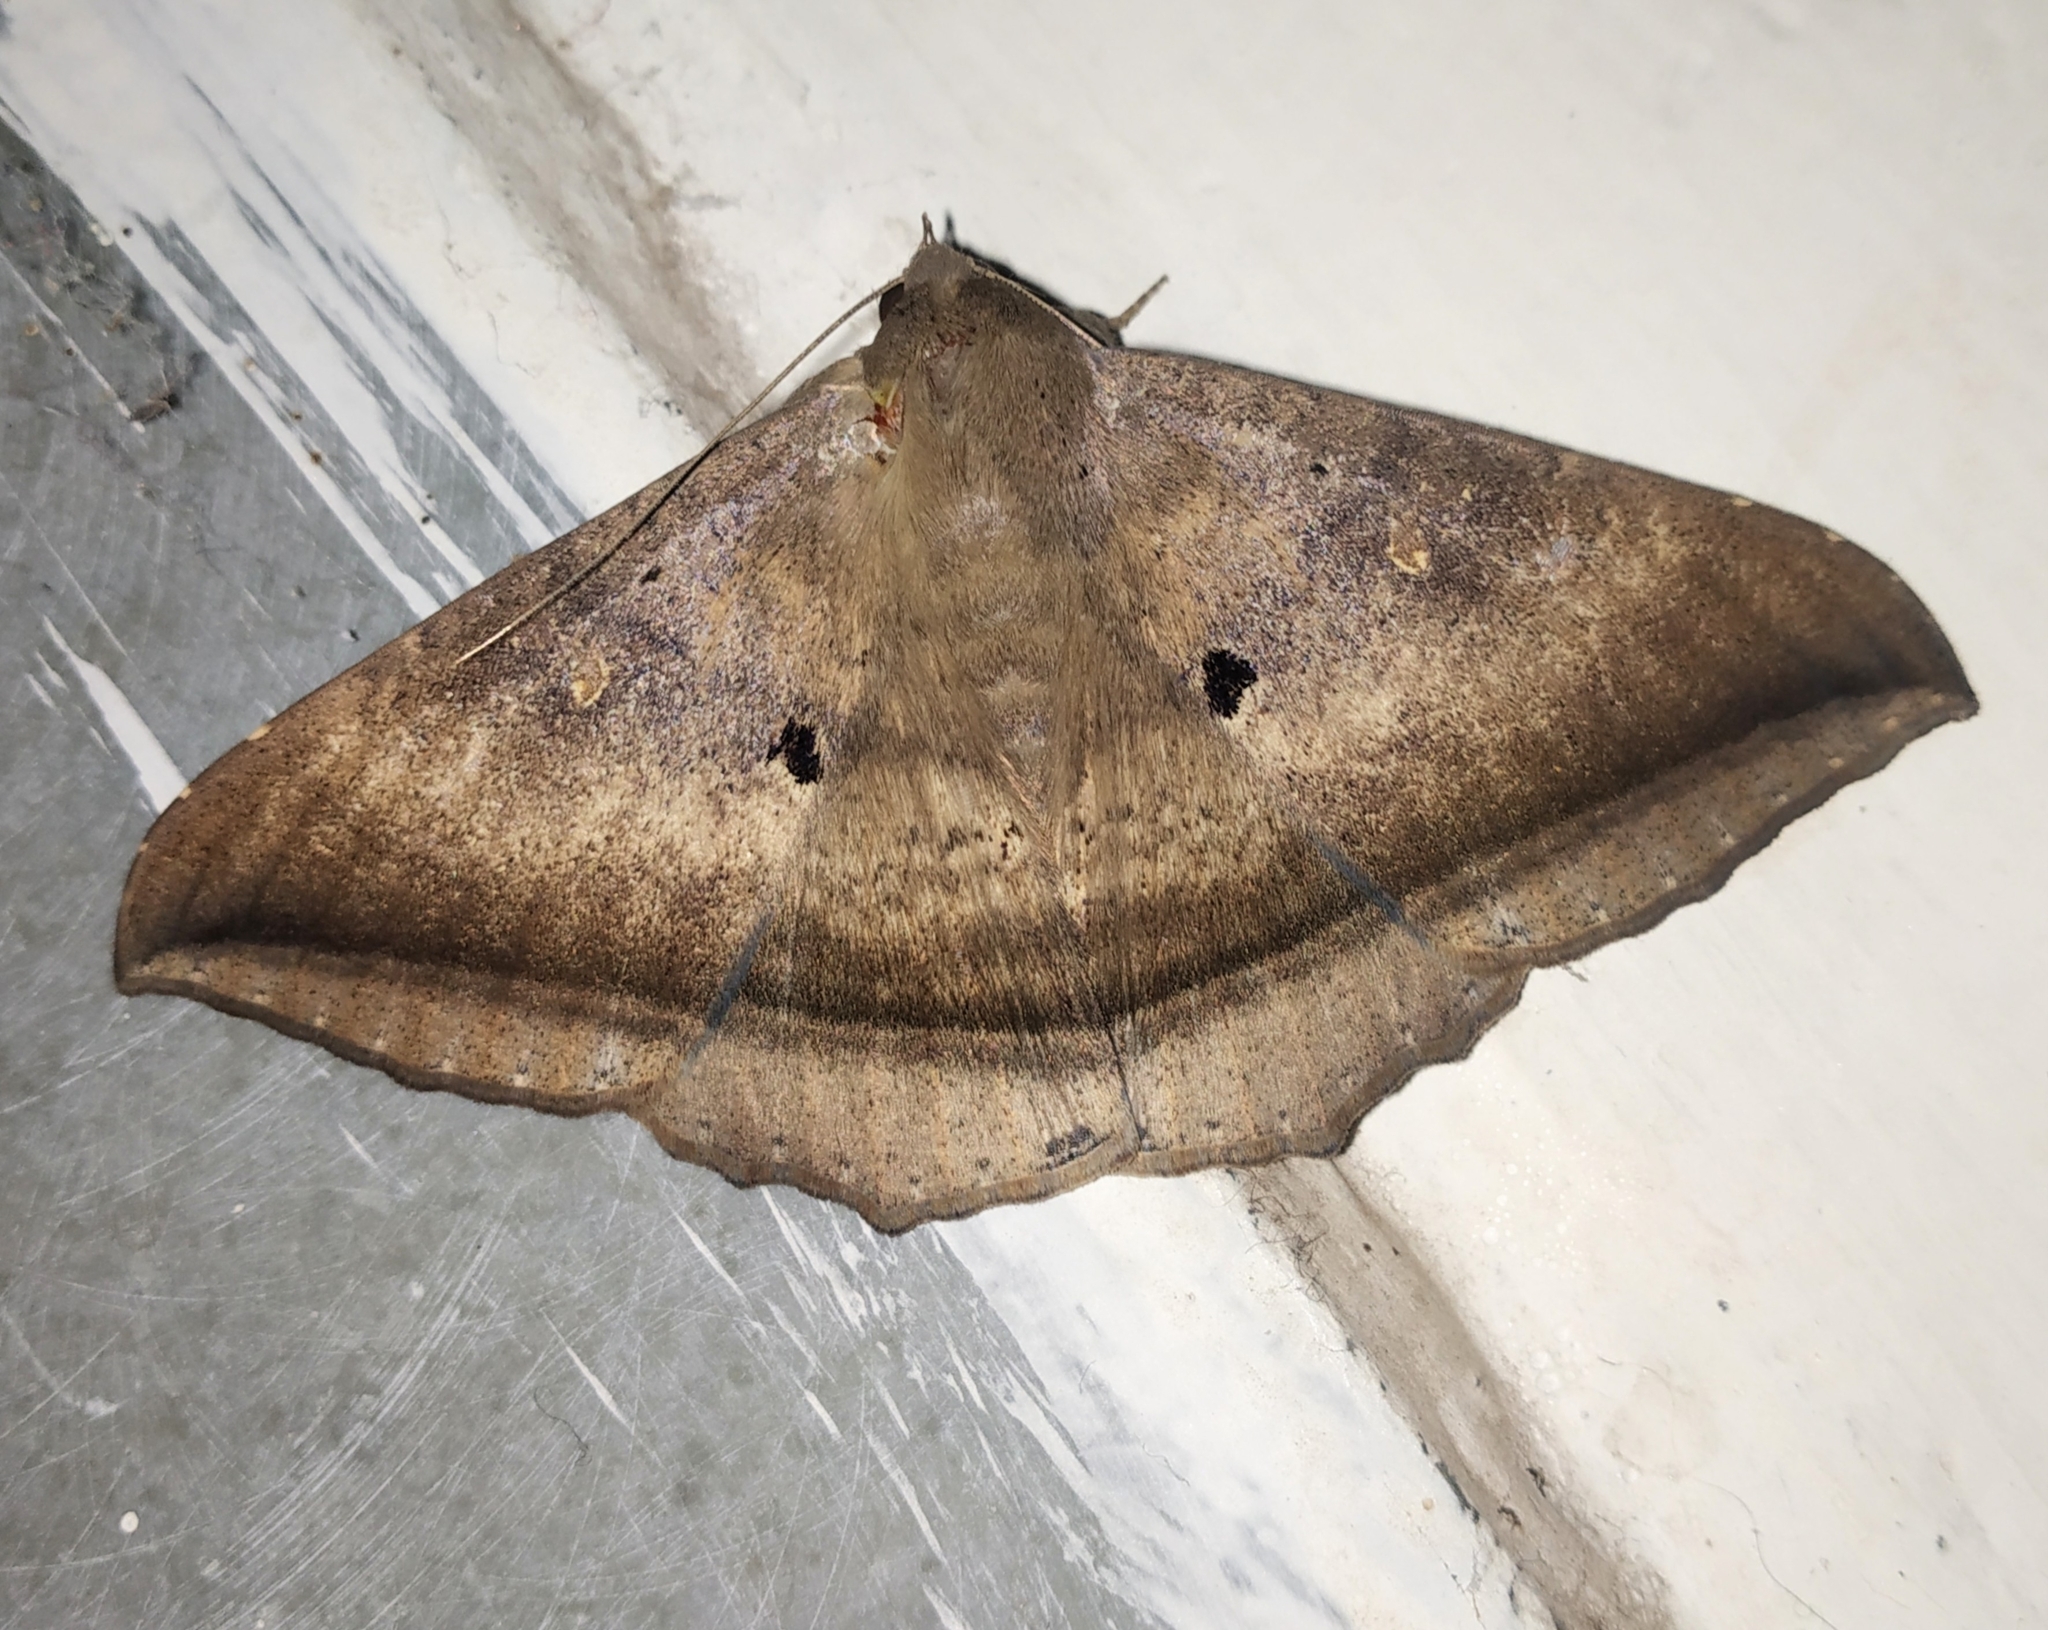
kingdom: Animalia
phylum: Arthropoda
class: Insecta
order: Lepidoptera
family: Erebidae
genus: Hulodes
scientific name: Hulodes caranea
